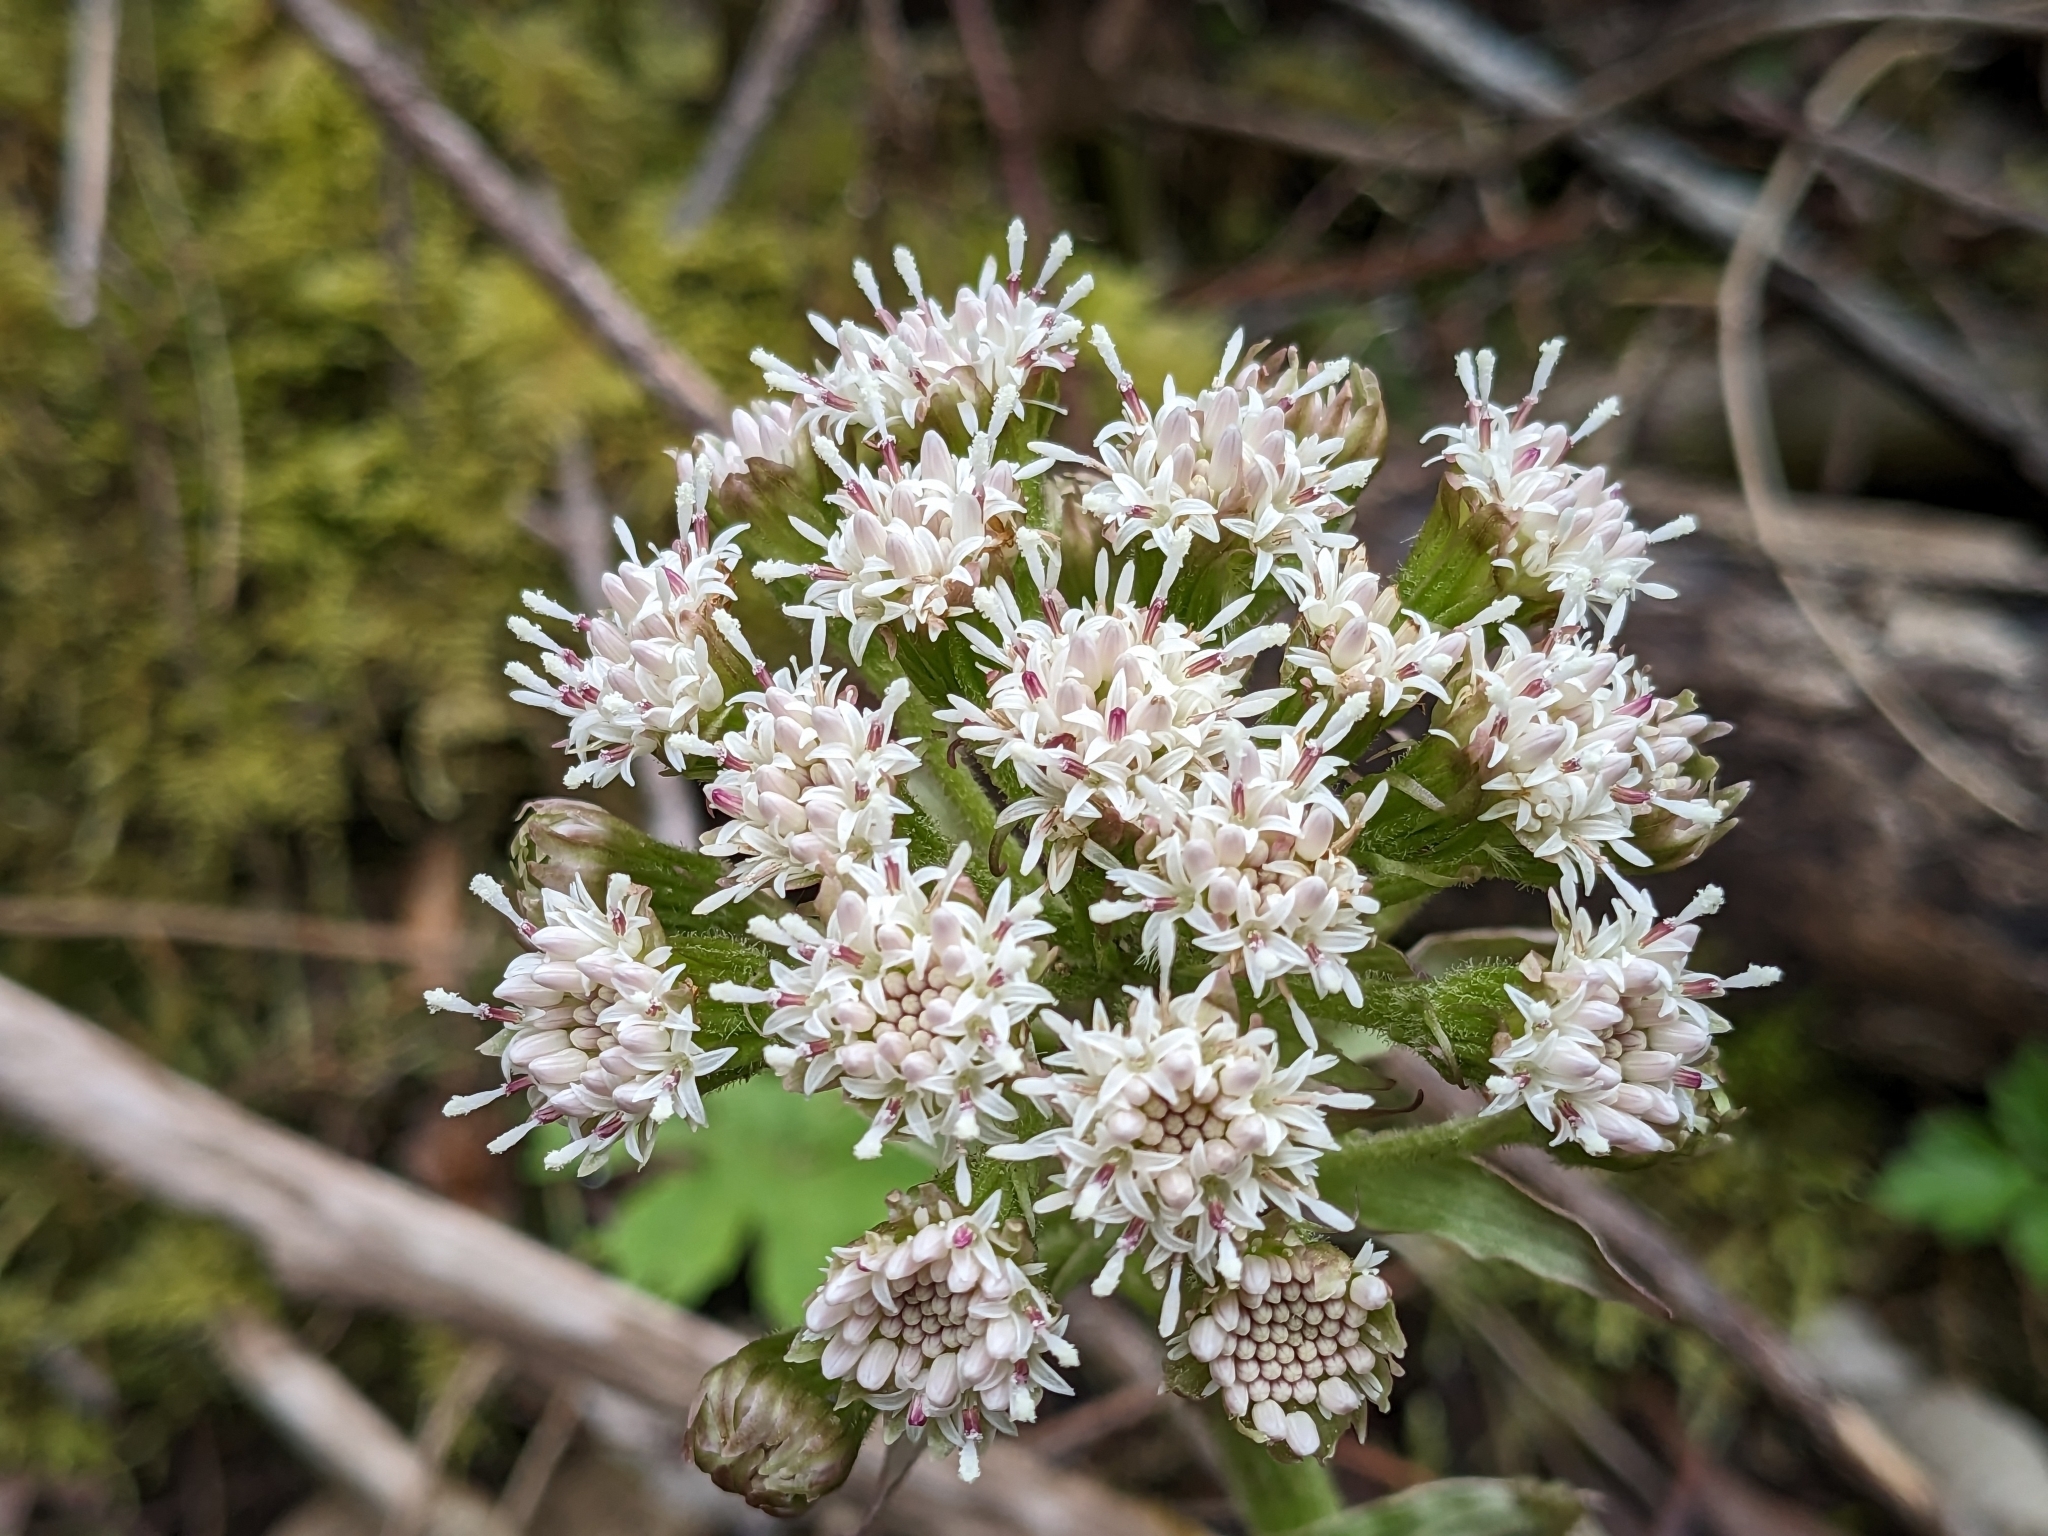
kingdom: Plantae
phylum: Tracheophyta
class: Magnoliopsida
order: Asterales
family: Asteraceae
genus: Petasites
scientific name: Petasites frigidus
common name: Arctic butterbur
